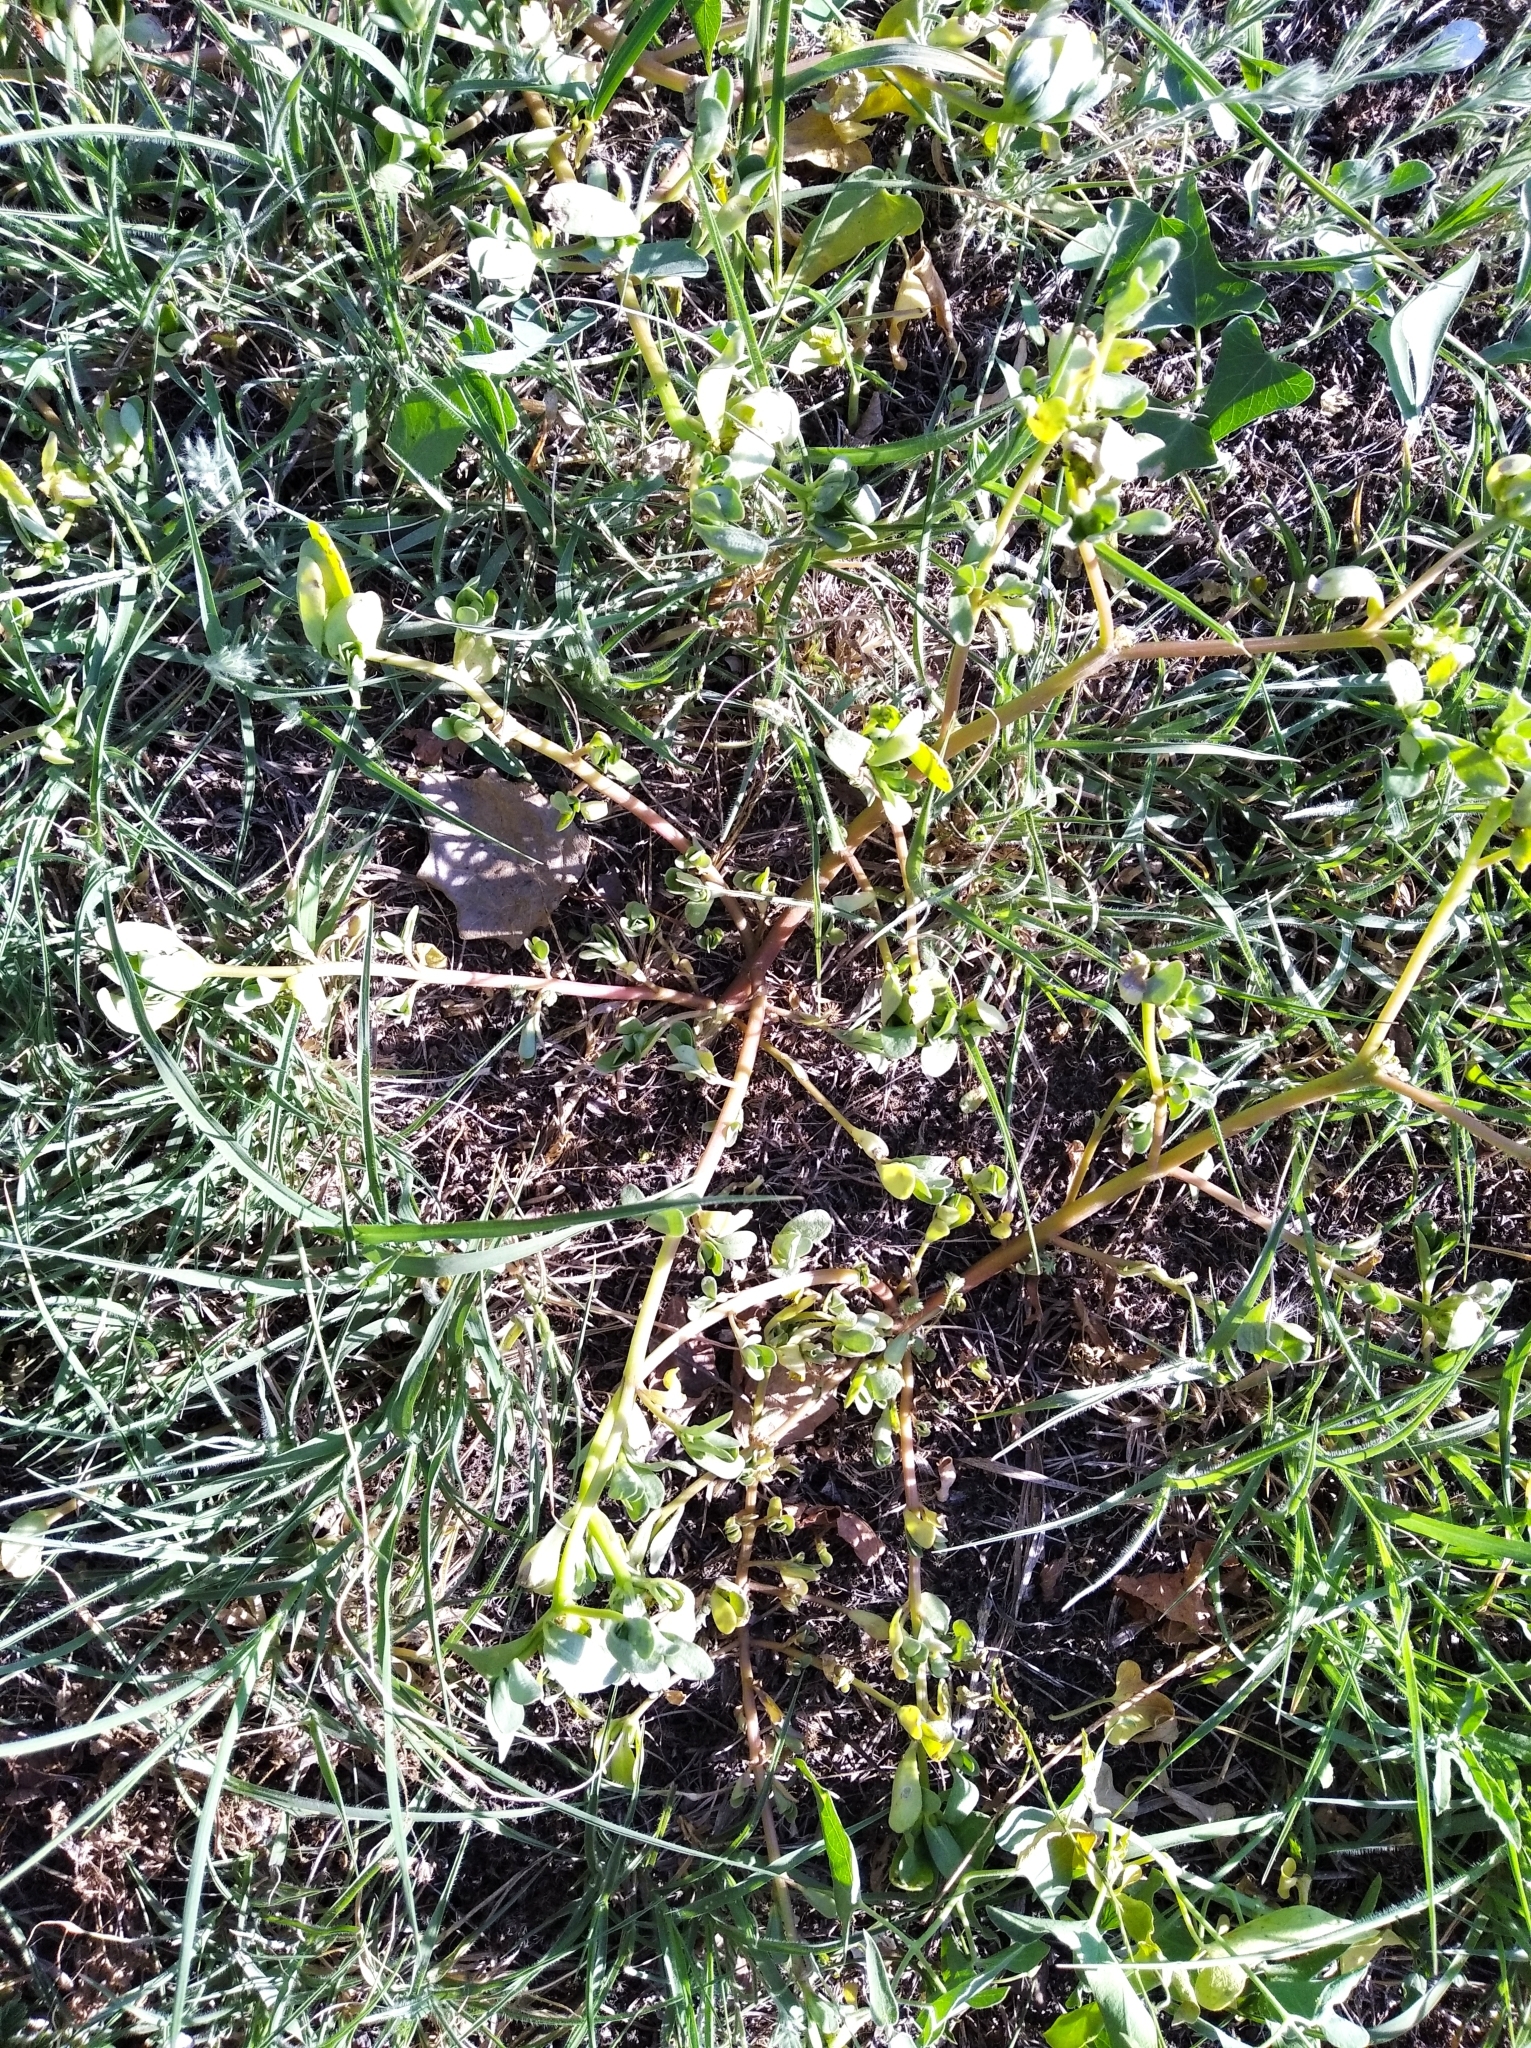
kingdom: Plantae
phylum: Tracheophyta
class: Magnoliopsida
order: Caryophyllales
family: Portulacaceae
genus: Portulaca
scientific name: Portulaca oleracea
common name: Common purslane
